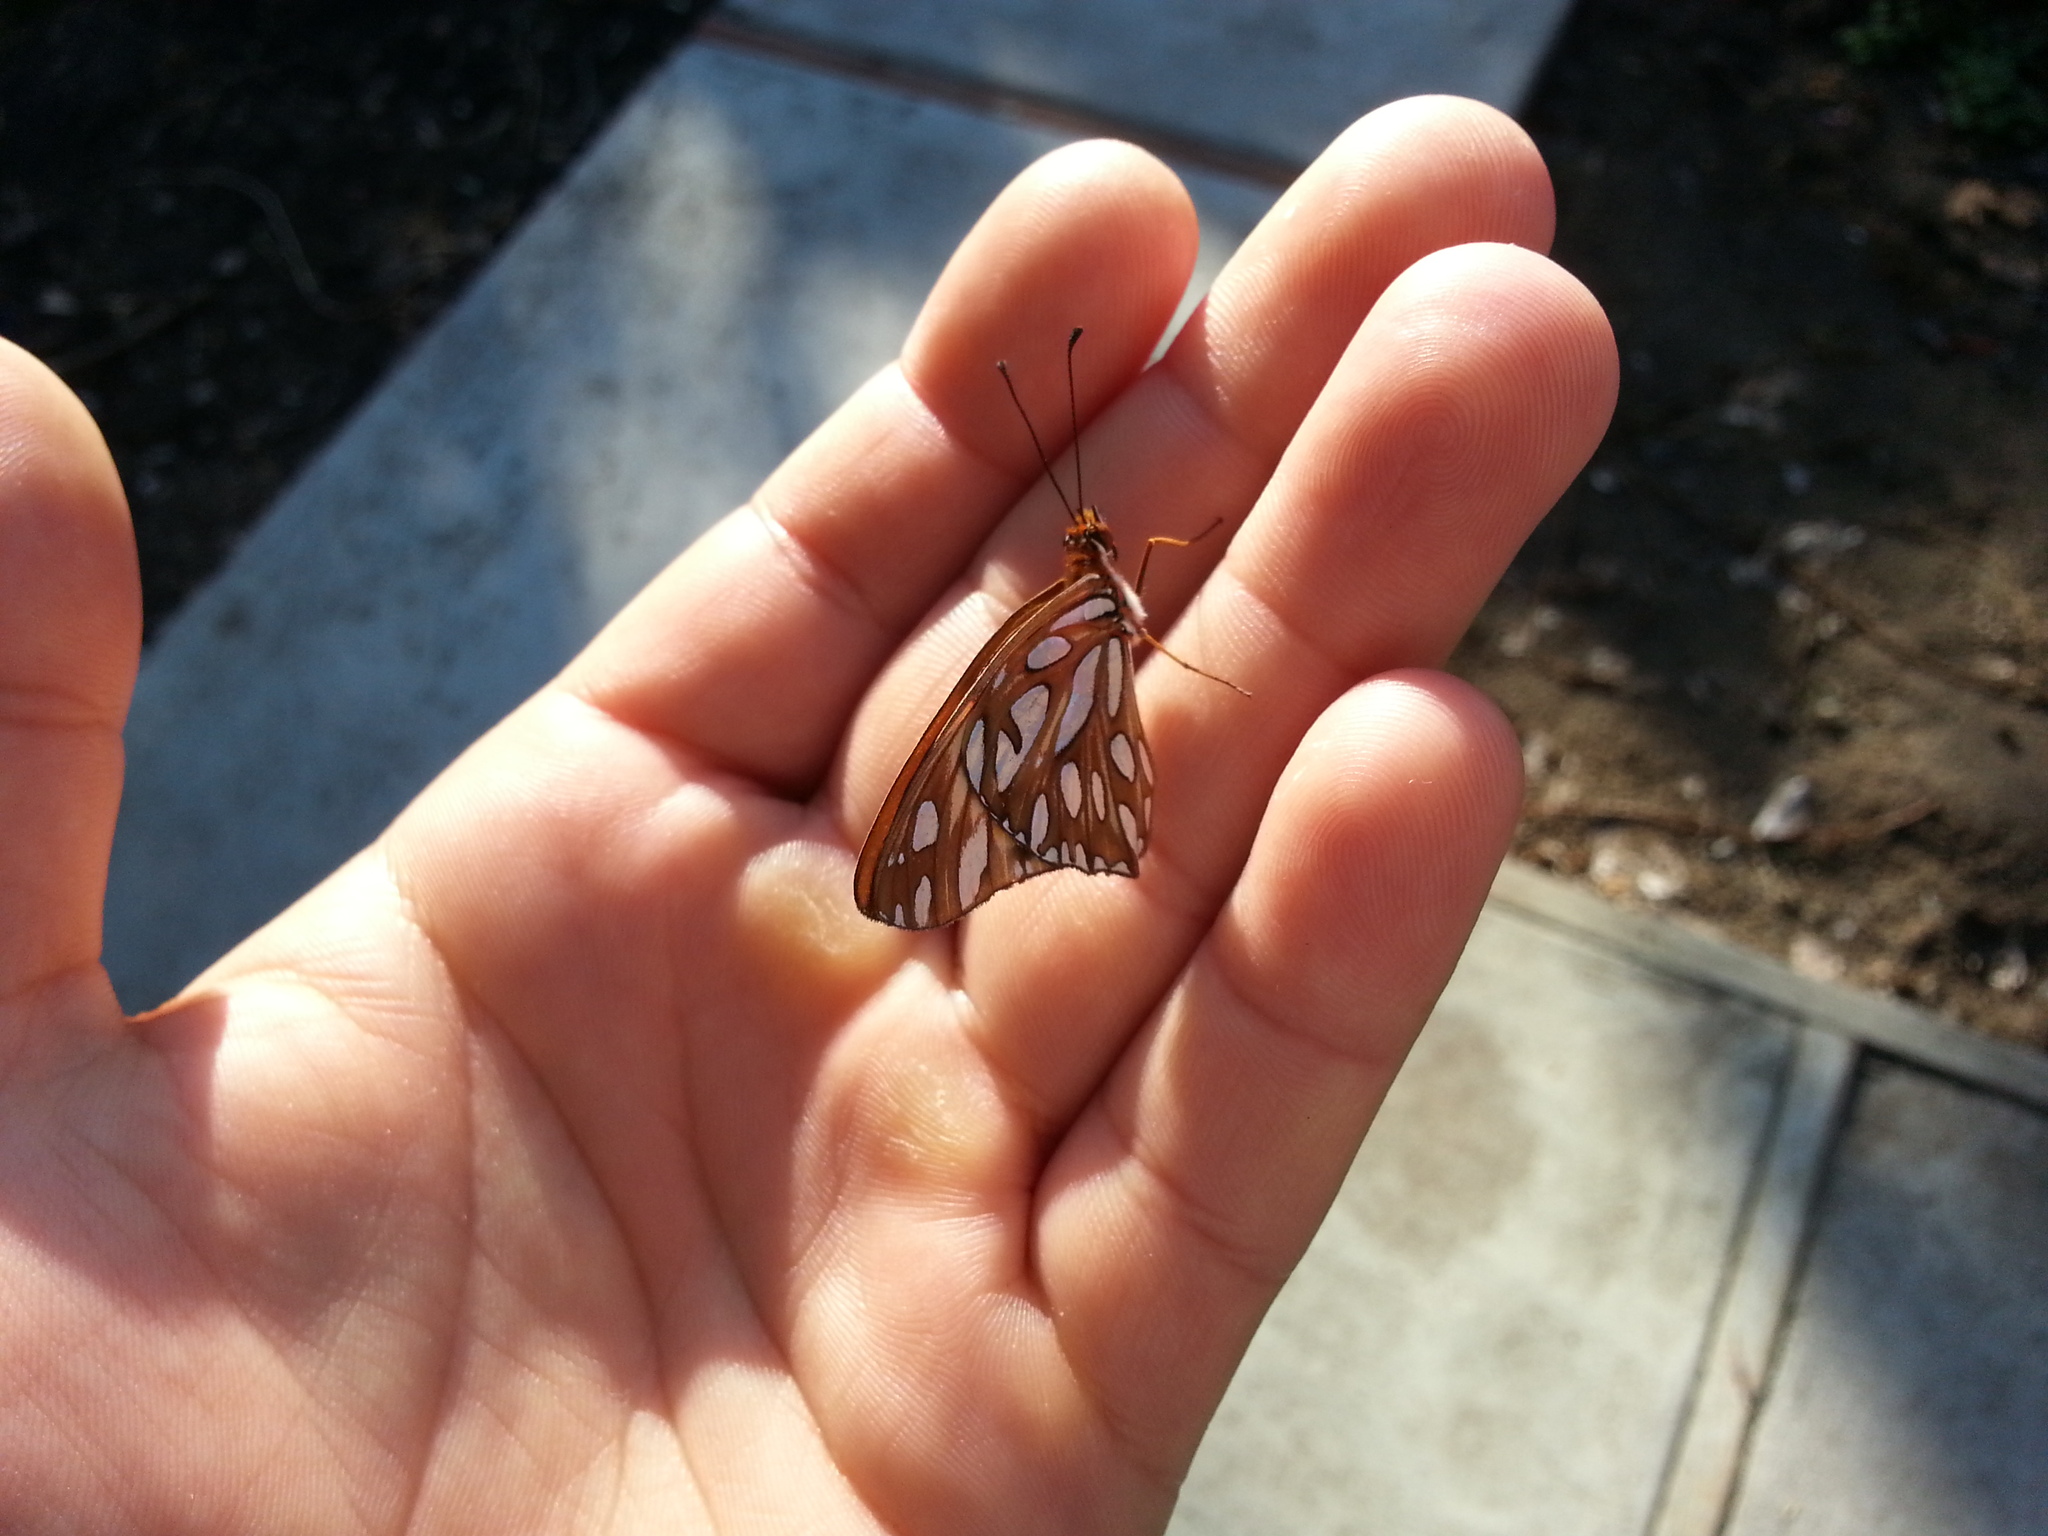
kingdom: Animalia
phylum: Arthropoda
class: Insecta
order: Lepidoptera
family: Nymphalidae
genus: Dione
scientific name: Dione vanillae
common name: Gulf fritillary
